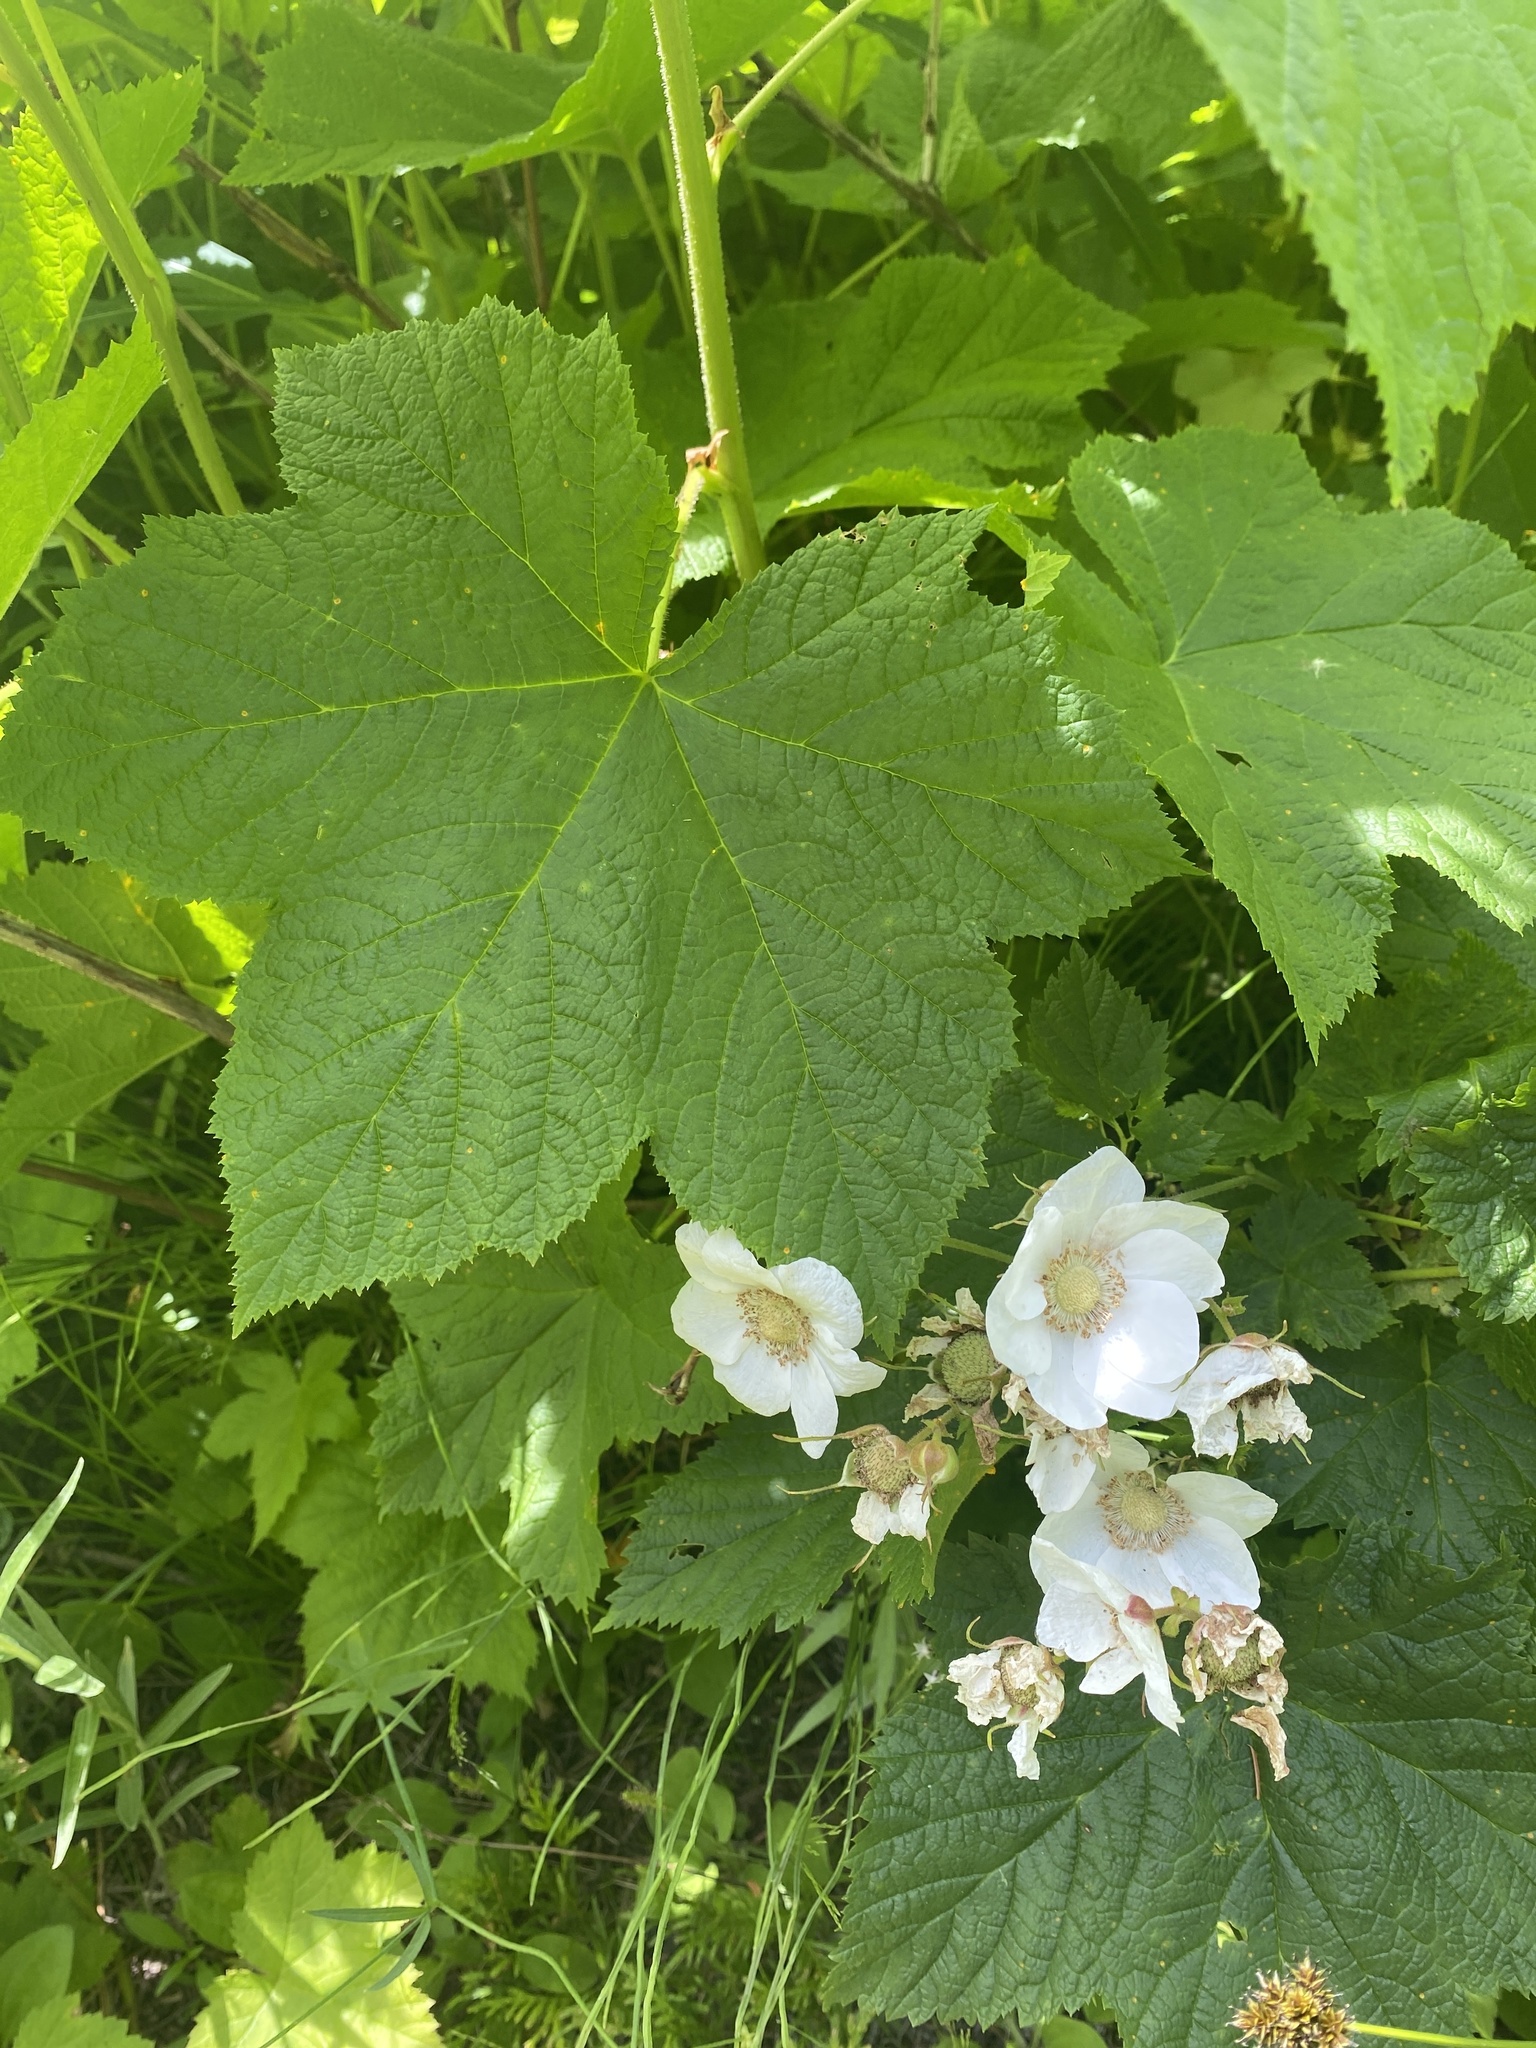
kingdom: Plantae
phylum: Tracheophyta
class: Magnoliopsida
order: Rosales
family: Rosaceae
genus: Rubus
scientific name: Rubus parviflorus
